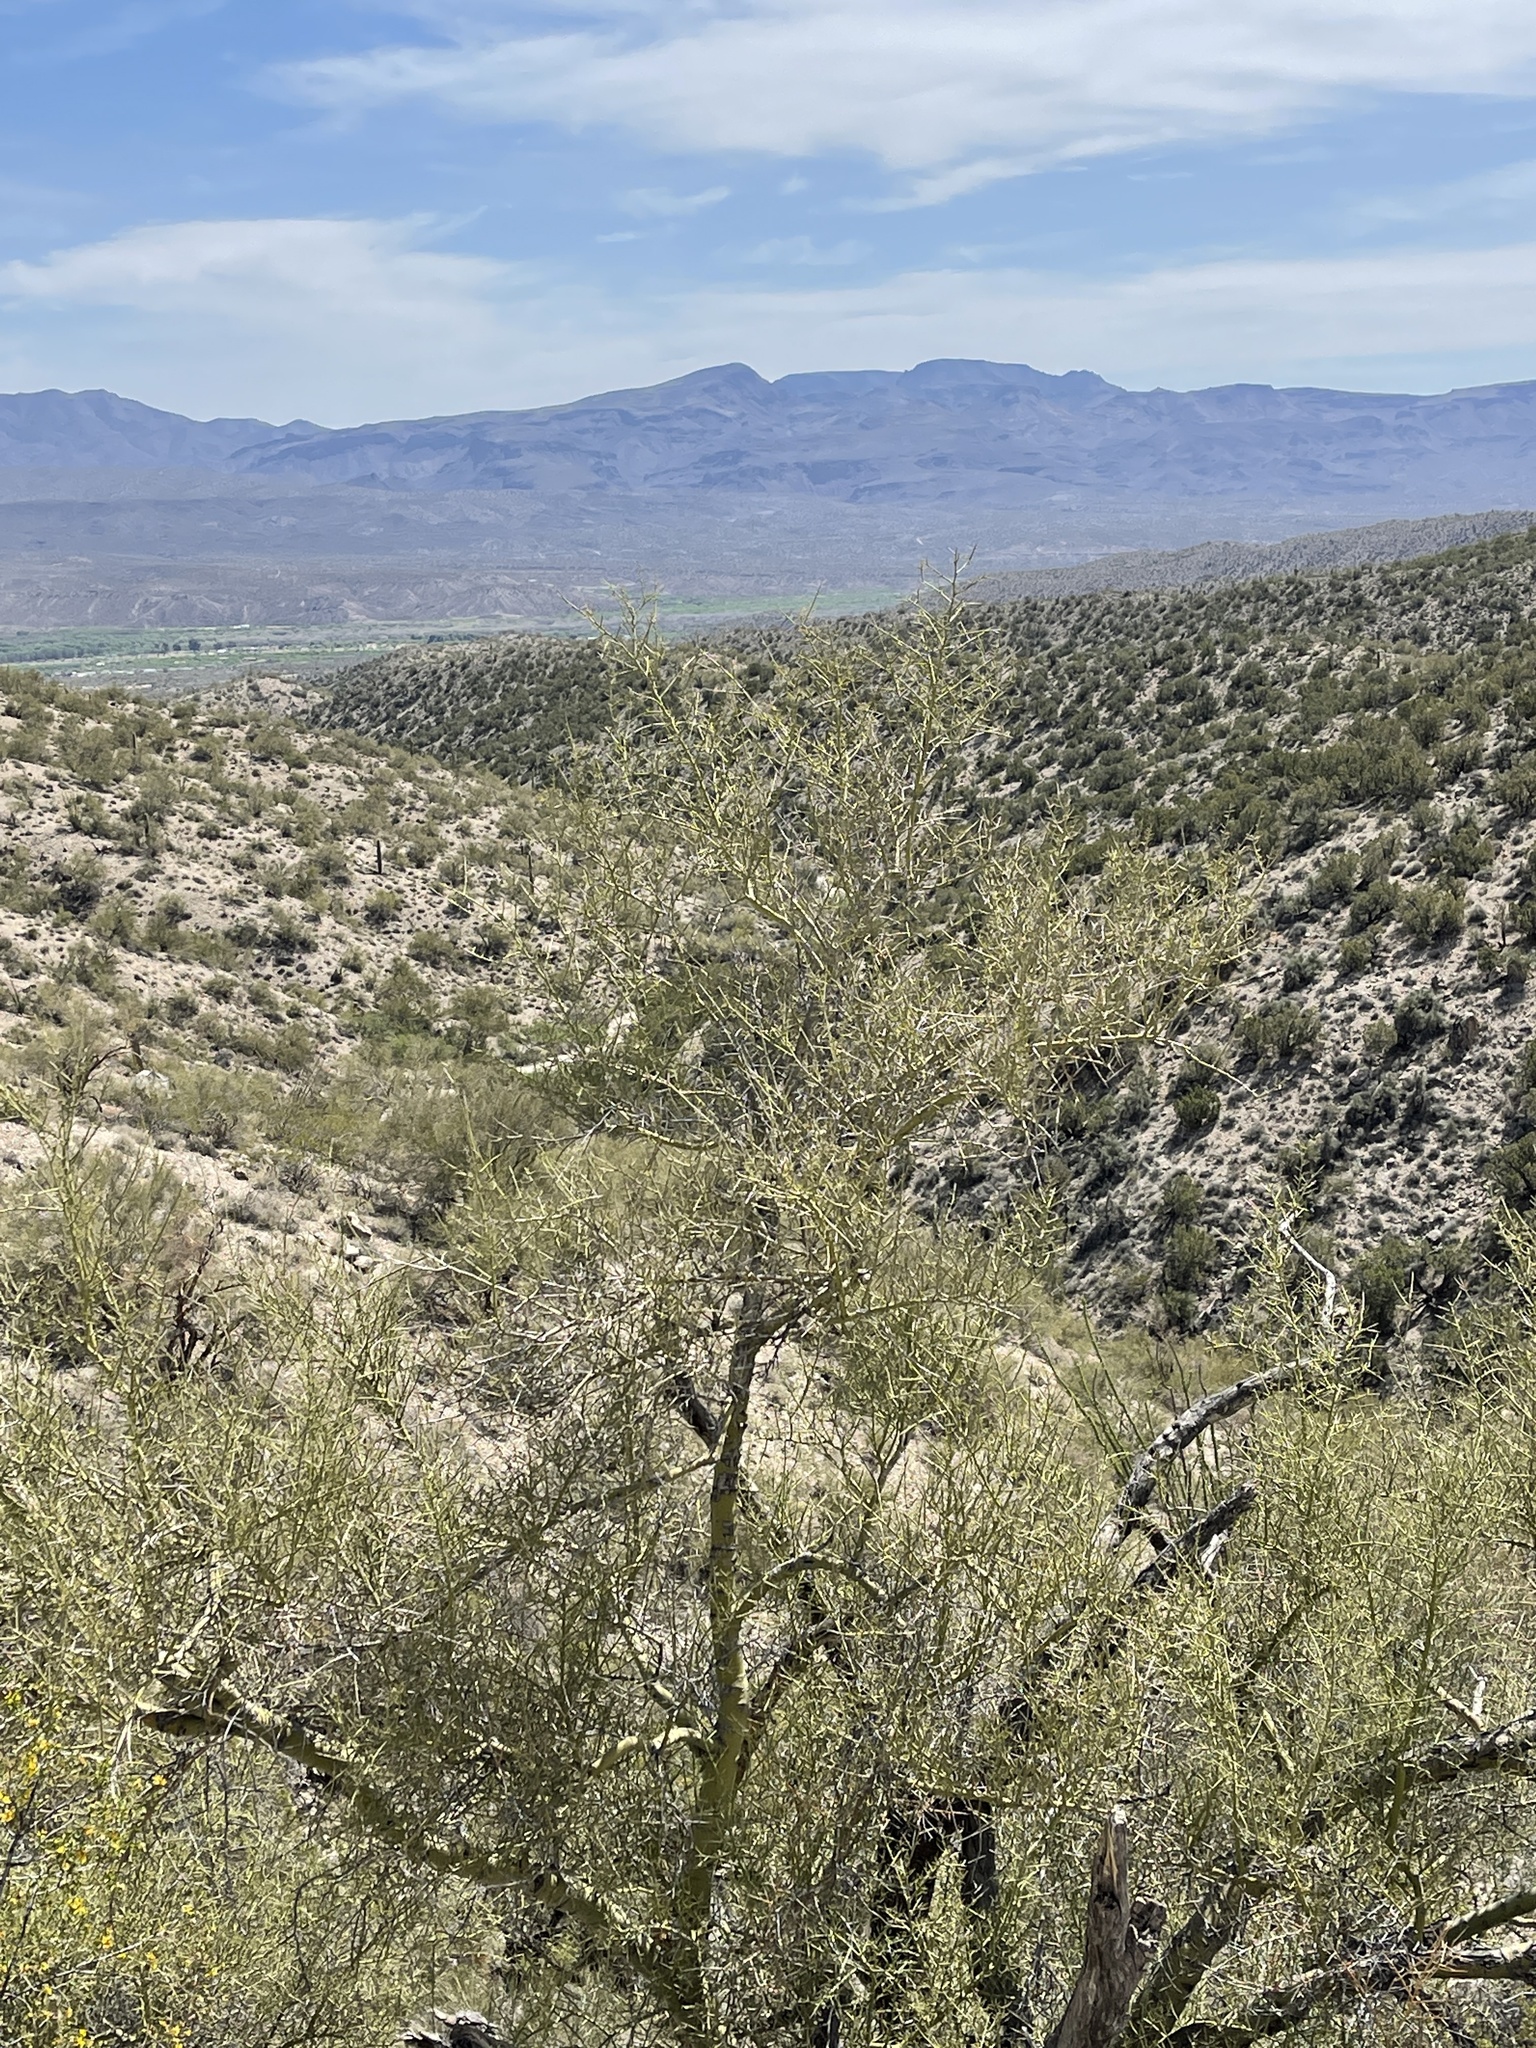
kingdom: Plantae
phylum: Tracheophyta
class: Magnoliopsida
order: Fabales
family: Fabaceae
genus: Parkinsonia
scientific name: Parkinsonia microphylla
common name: Yellow paloverde
